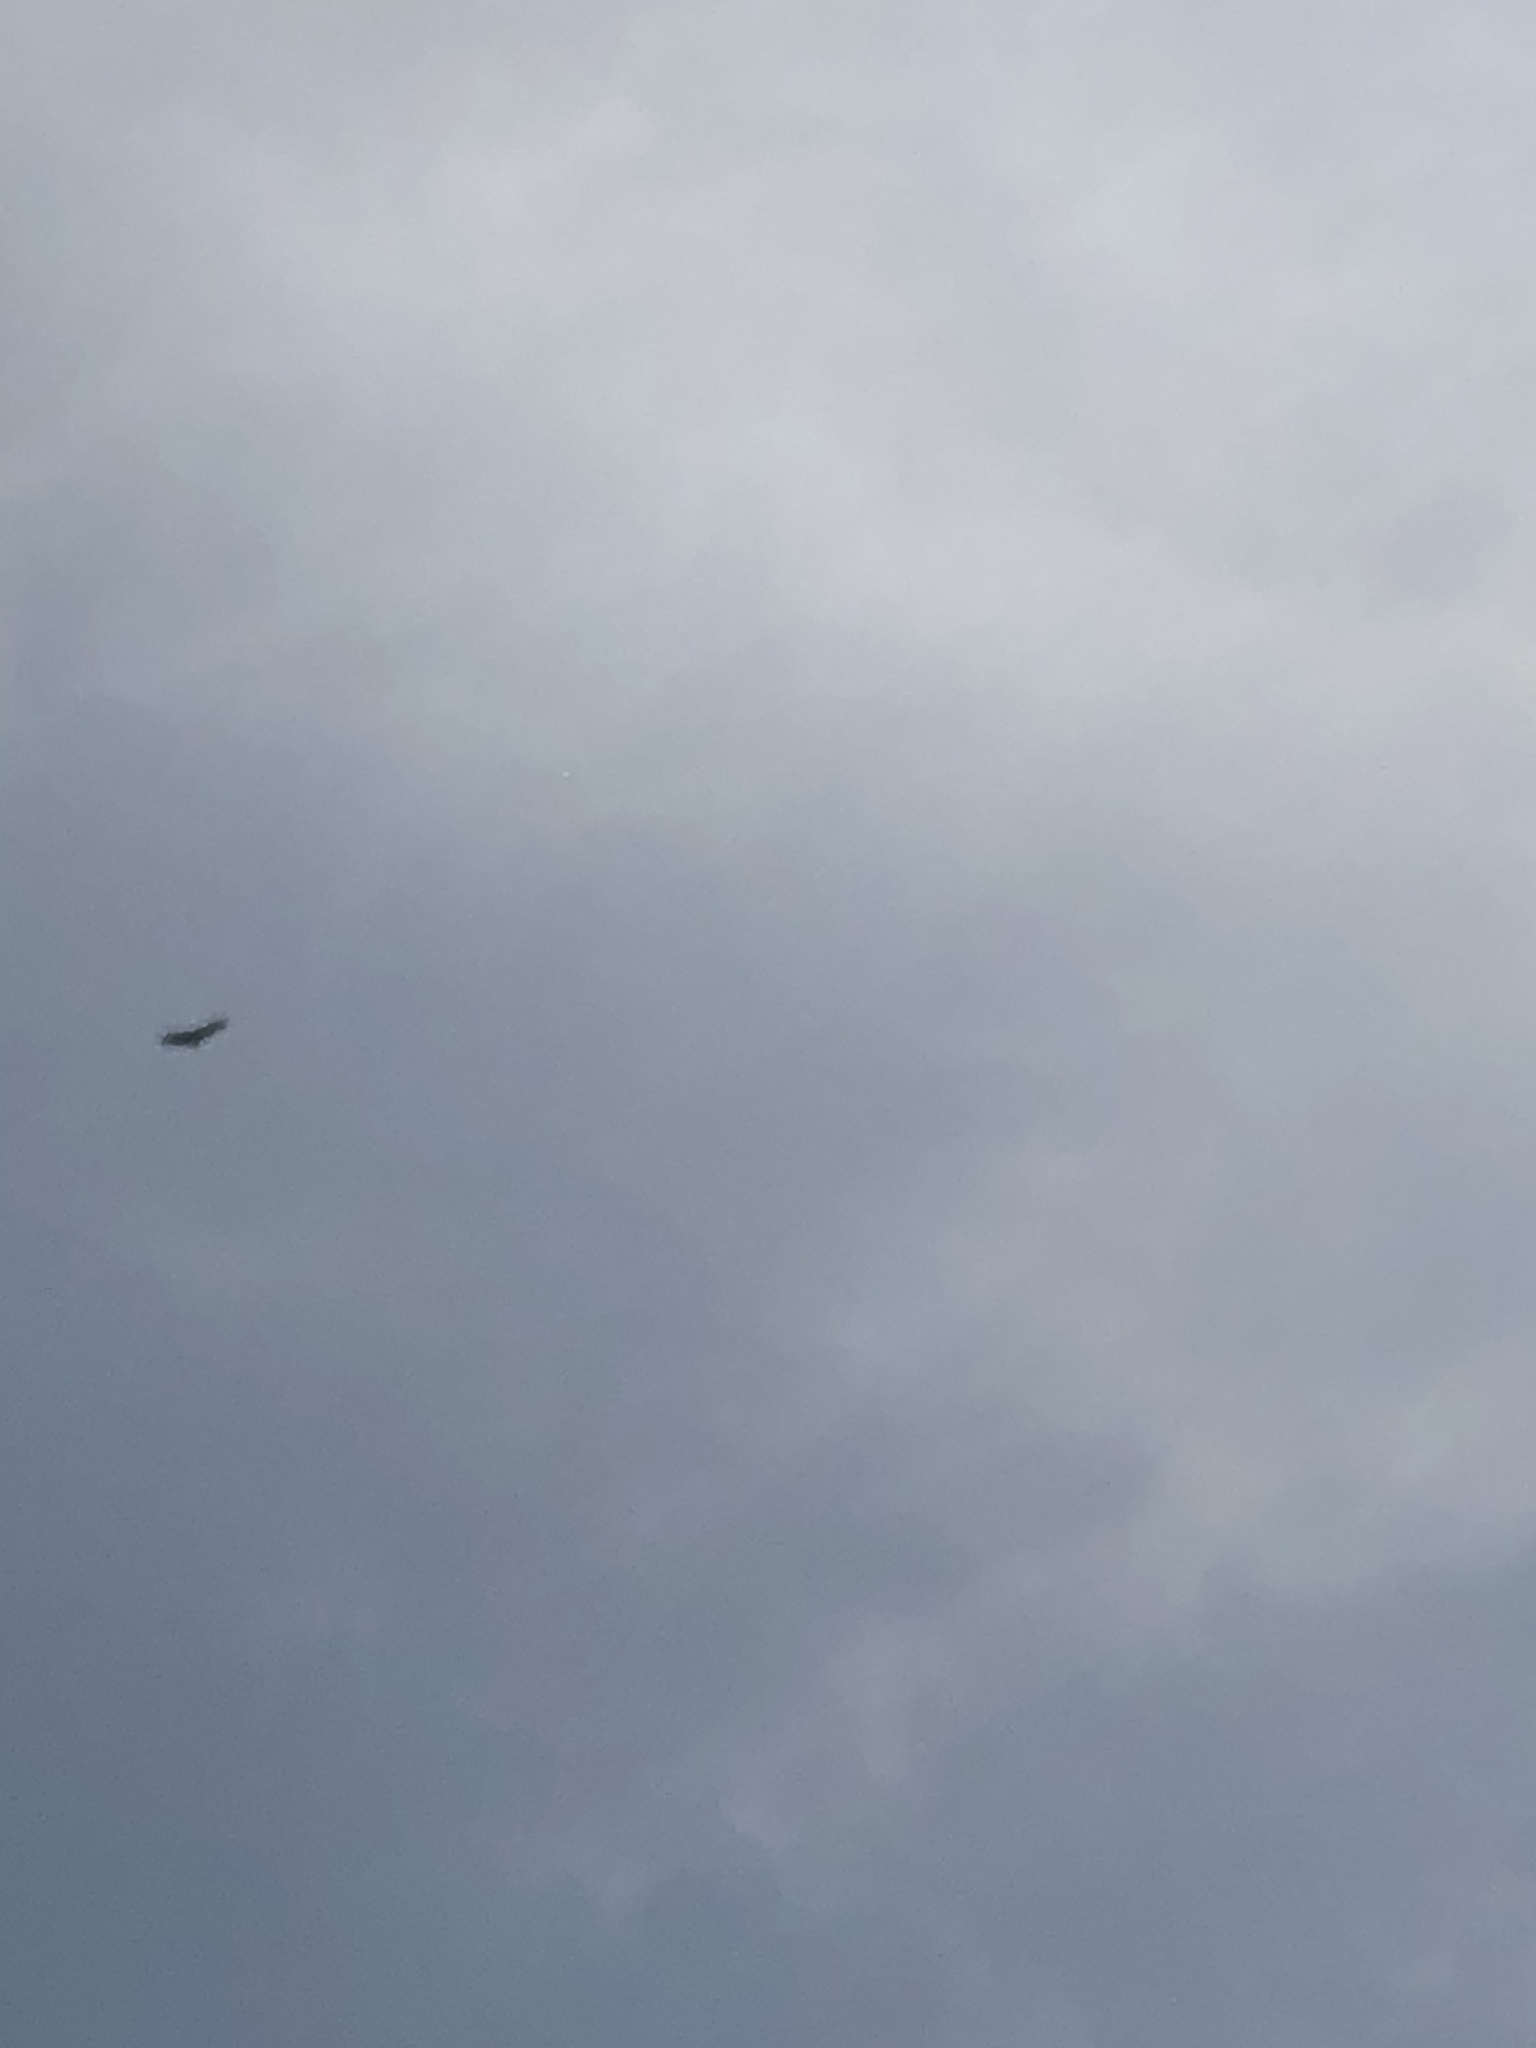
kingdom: Animalia
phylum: Chordata
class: Aves
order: Accipitriformes
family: Cathartidae
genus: Coragyps
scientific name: Coragyps atratus
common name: Black vulture
